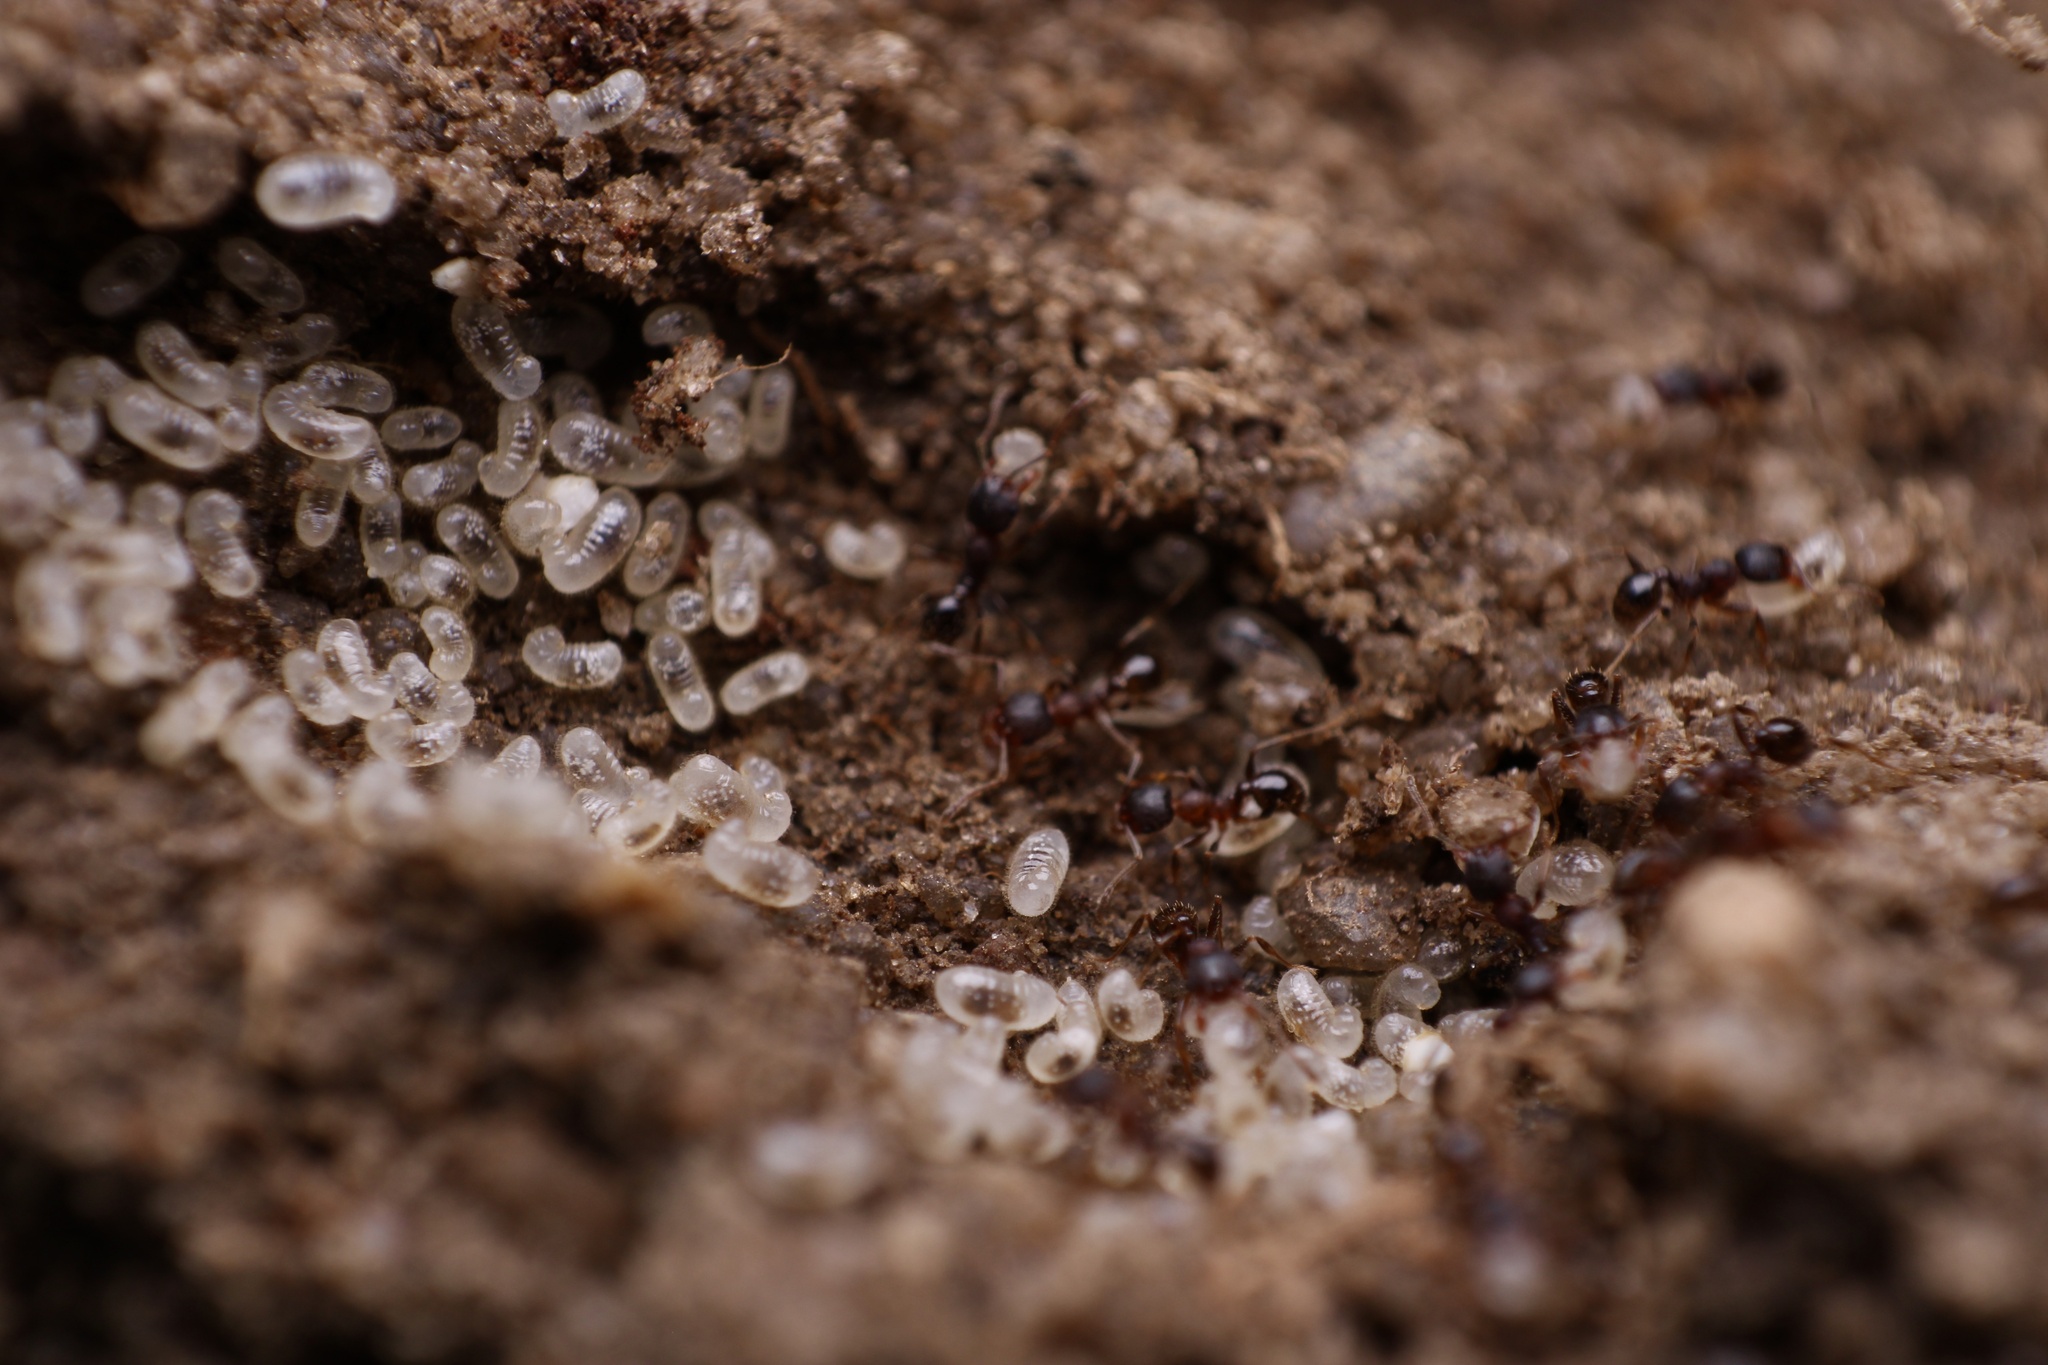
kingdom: Animalia
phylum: Arthropoda
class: Insecta
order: Hymenoptera
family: Formicidae
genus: Pheidole
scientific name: Pheidole pilifera
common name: Hairy big-headed ant
